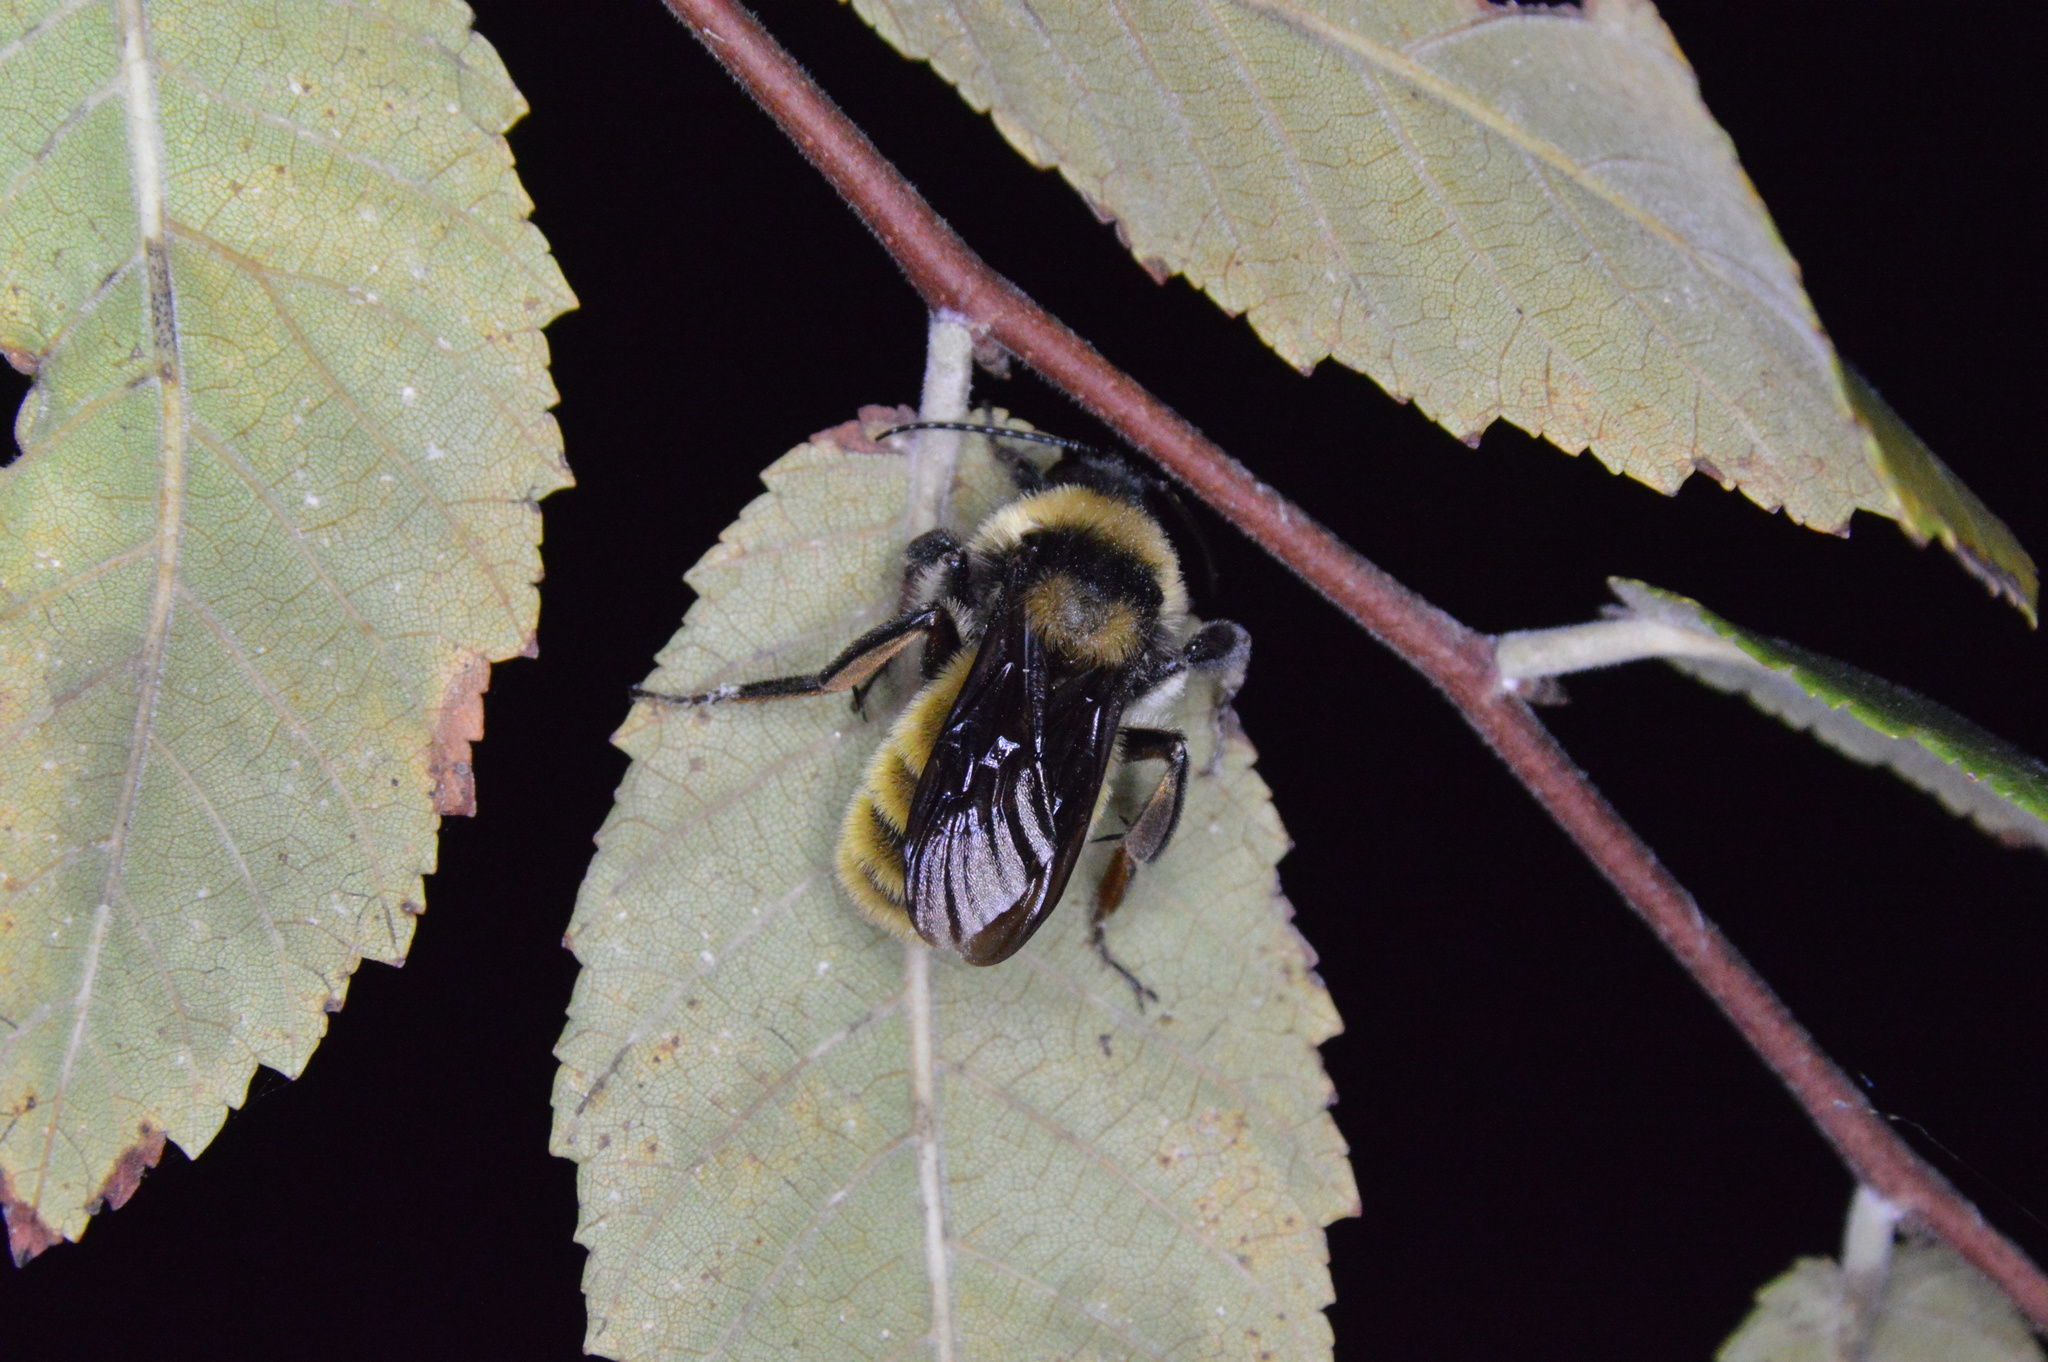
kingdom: Animalia
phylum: Arthropoda
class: Insecta
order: Hymenoptera
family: Apidae
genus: Bombus
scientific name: Bombus pensylvanicus
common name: Bumble bee
